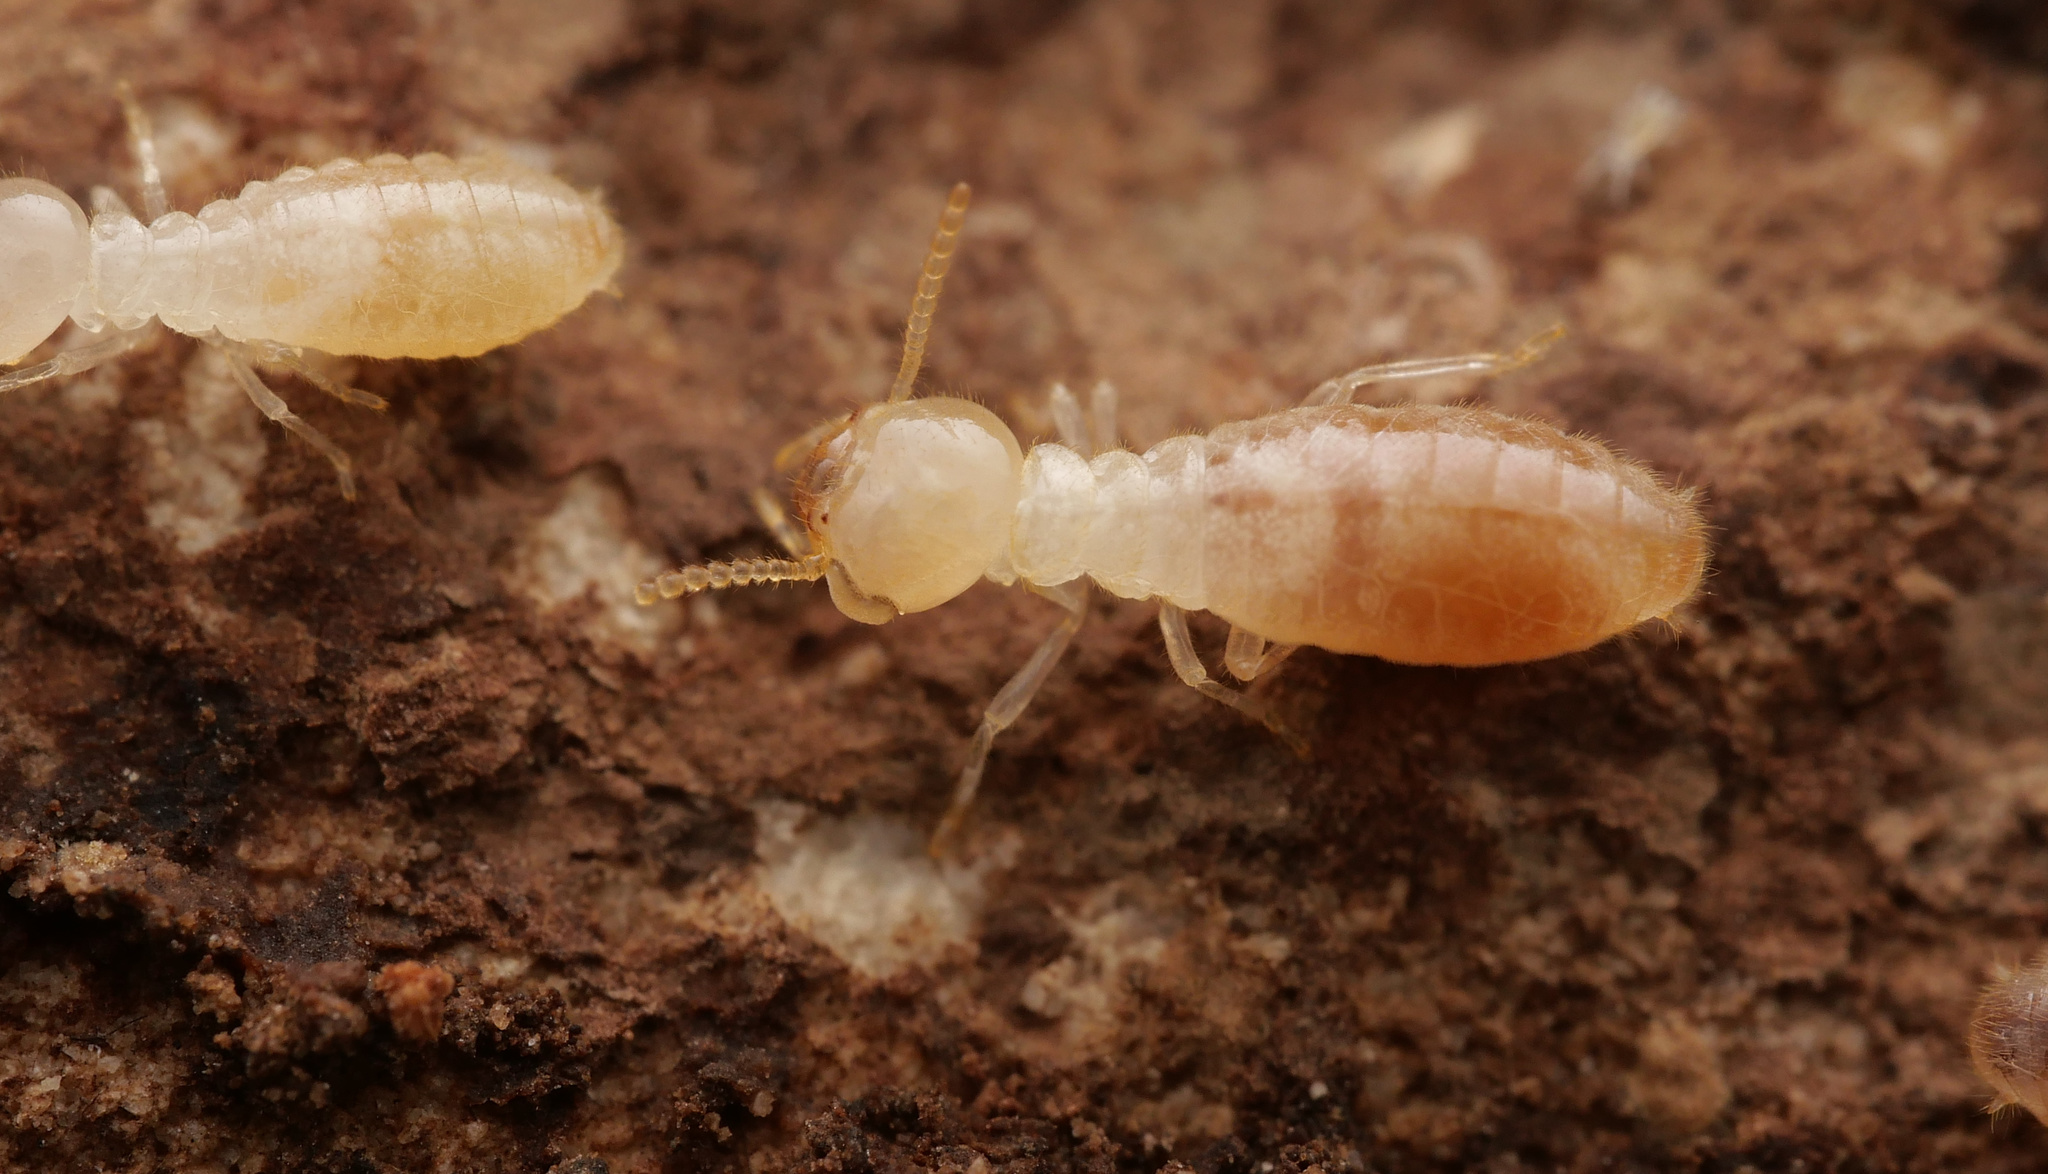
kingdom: Animalia
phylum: Arthropoda
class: Insecta
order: Blattodea
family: Rhinotermitidae
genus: Reticulitermes
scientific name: Reticulitermes
